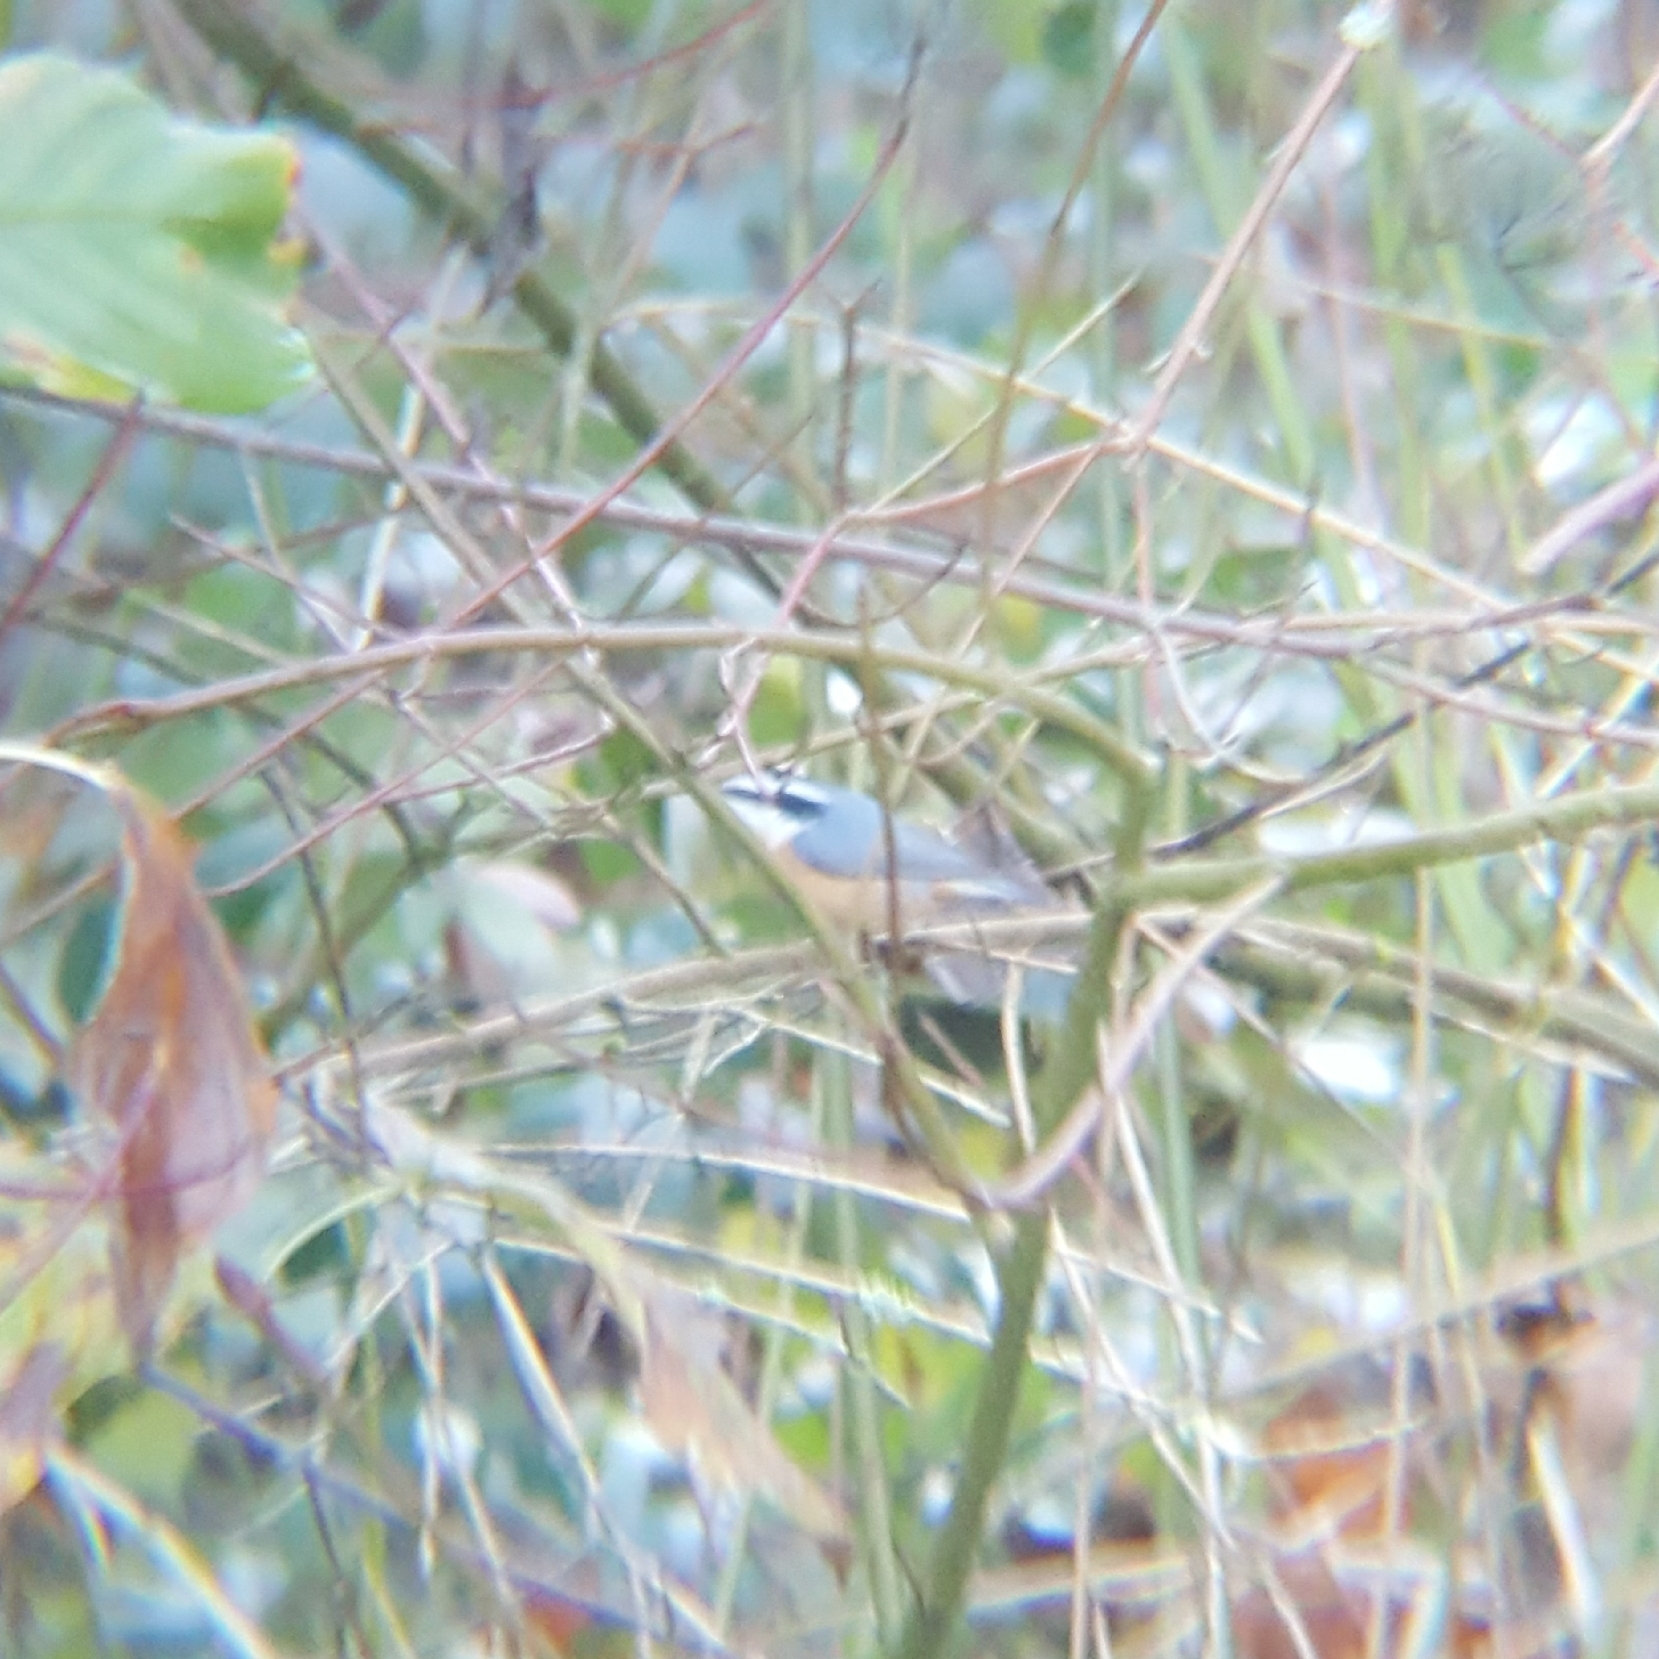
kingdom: Animalia
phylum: Chordata
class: Aves
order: Passeriformes
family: Sittidae
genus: Sitta
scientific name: Sitta canadensis
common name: Red-breasted nuthatch
